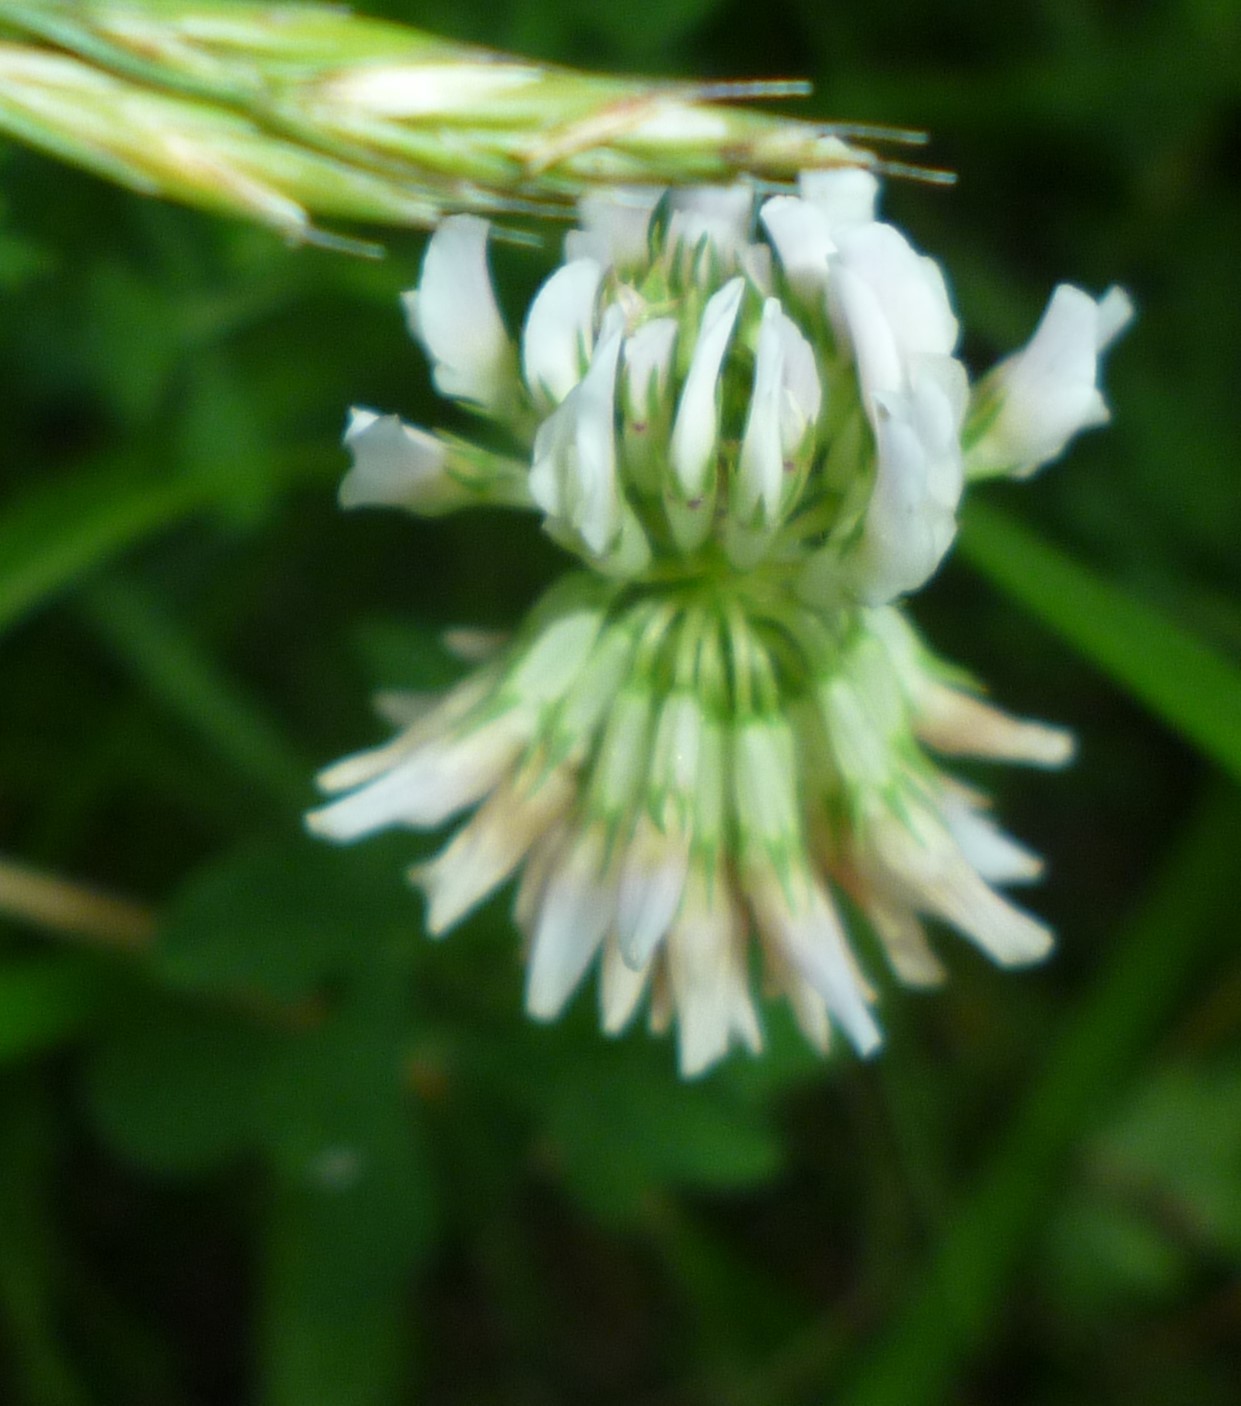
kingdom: Plantae
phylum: Tracheophyta
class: Magnoliopsida
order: Fabales
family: Fabaceae
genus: Trifolium
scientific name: Trifolium repens
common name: White clover
